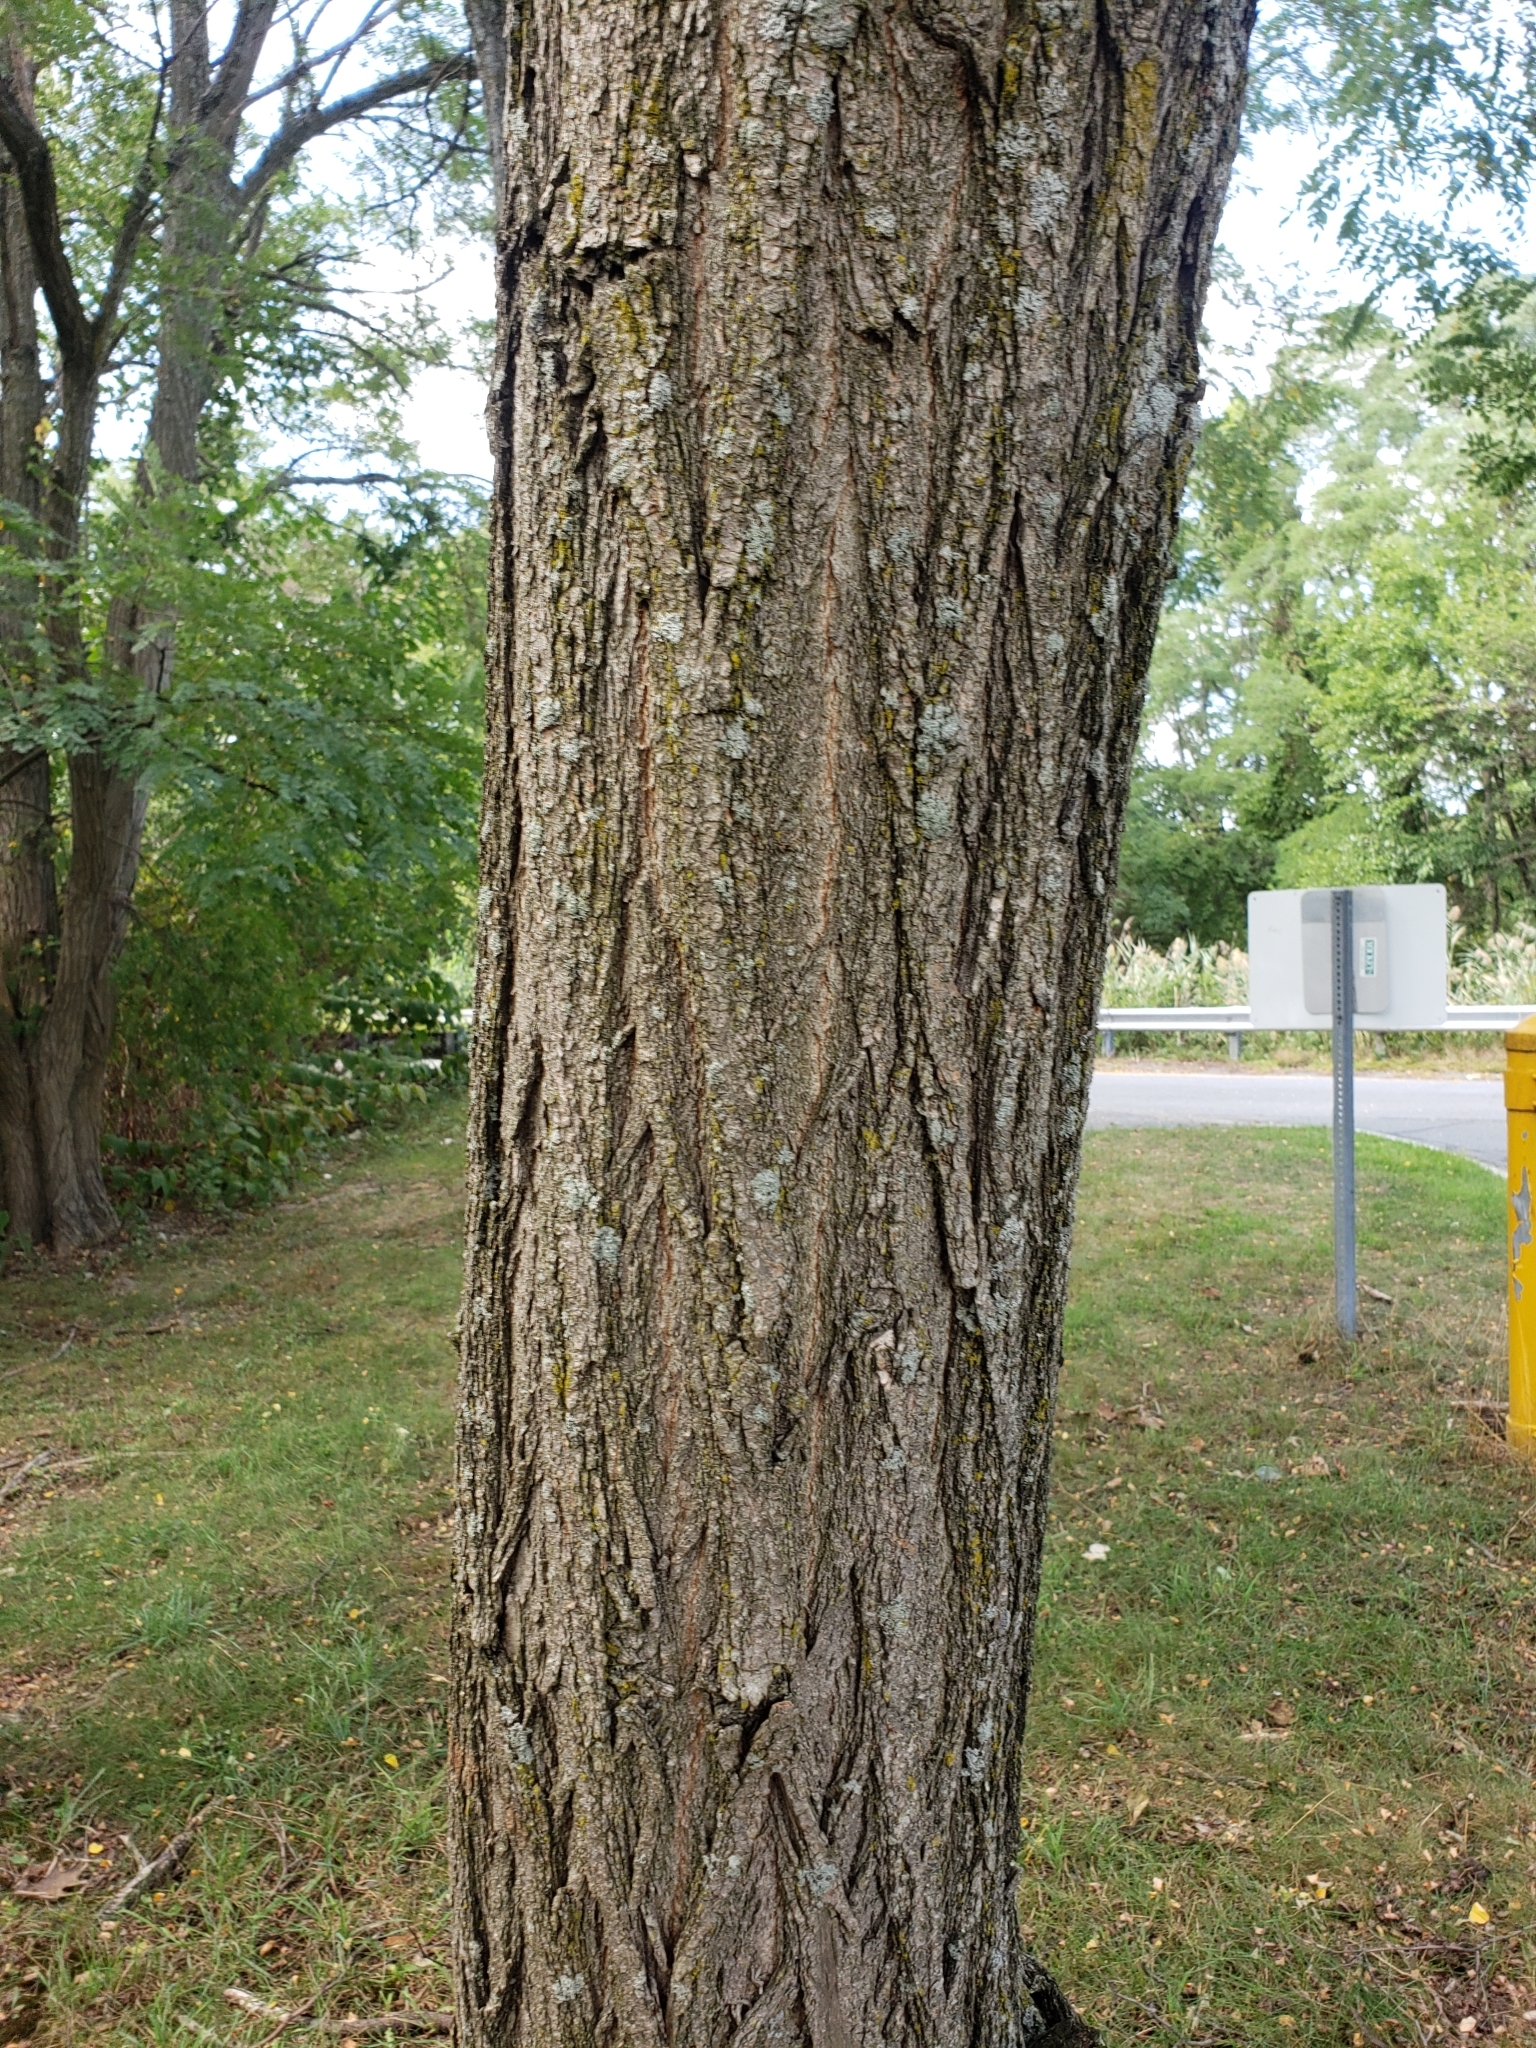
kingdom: Plantae
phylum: Tracheophyta
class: Magnoliopsida
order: Fabales
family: Fabaceae
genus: Robinia
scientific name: Robinia pseudoacacia
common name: Black locust
